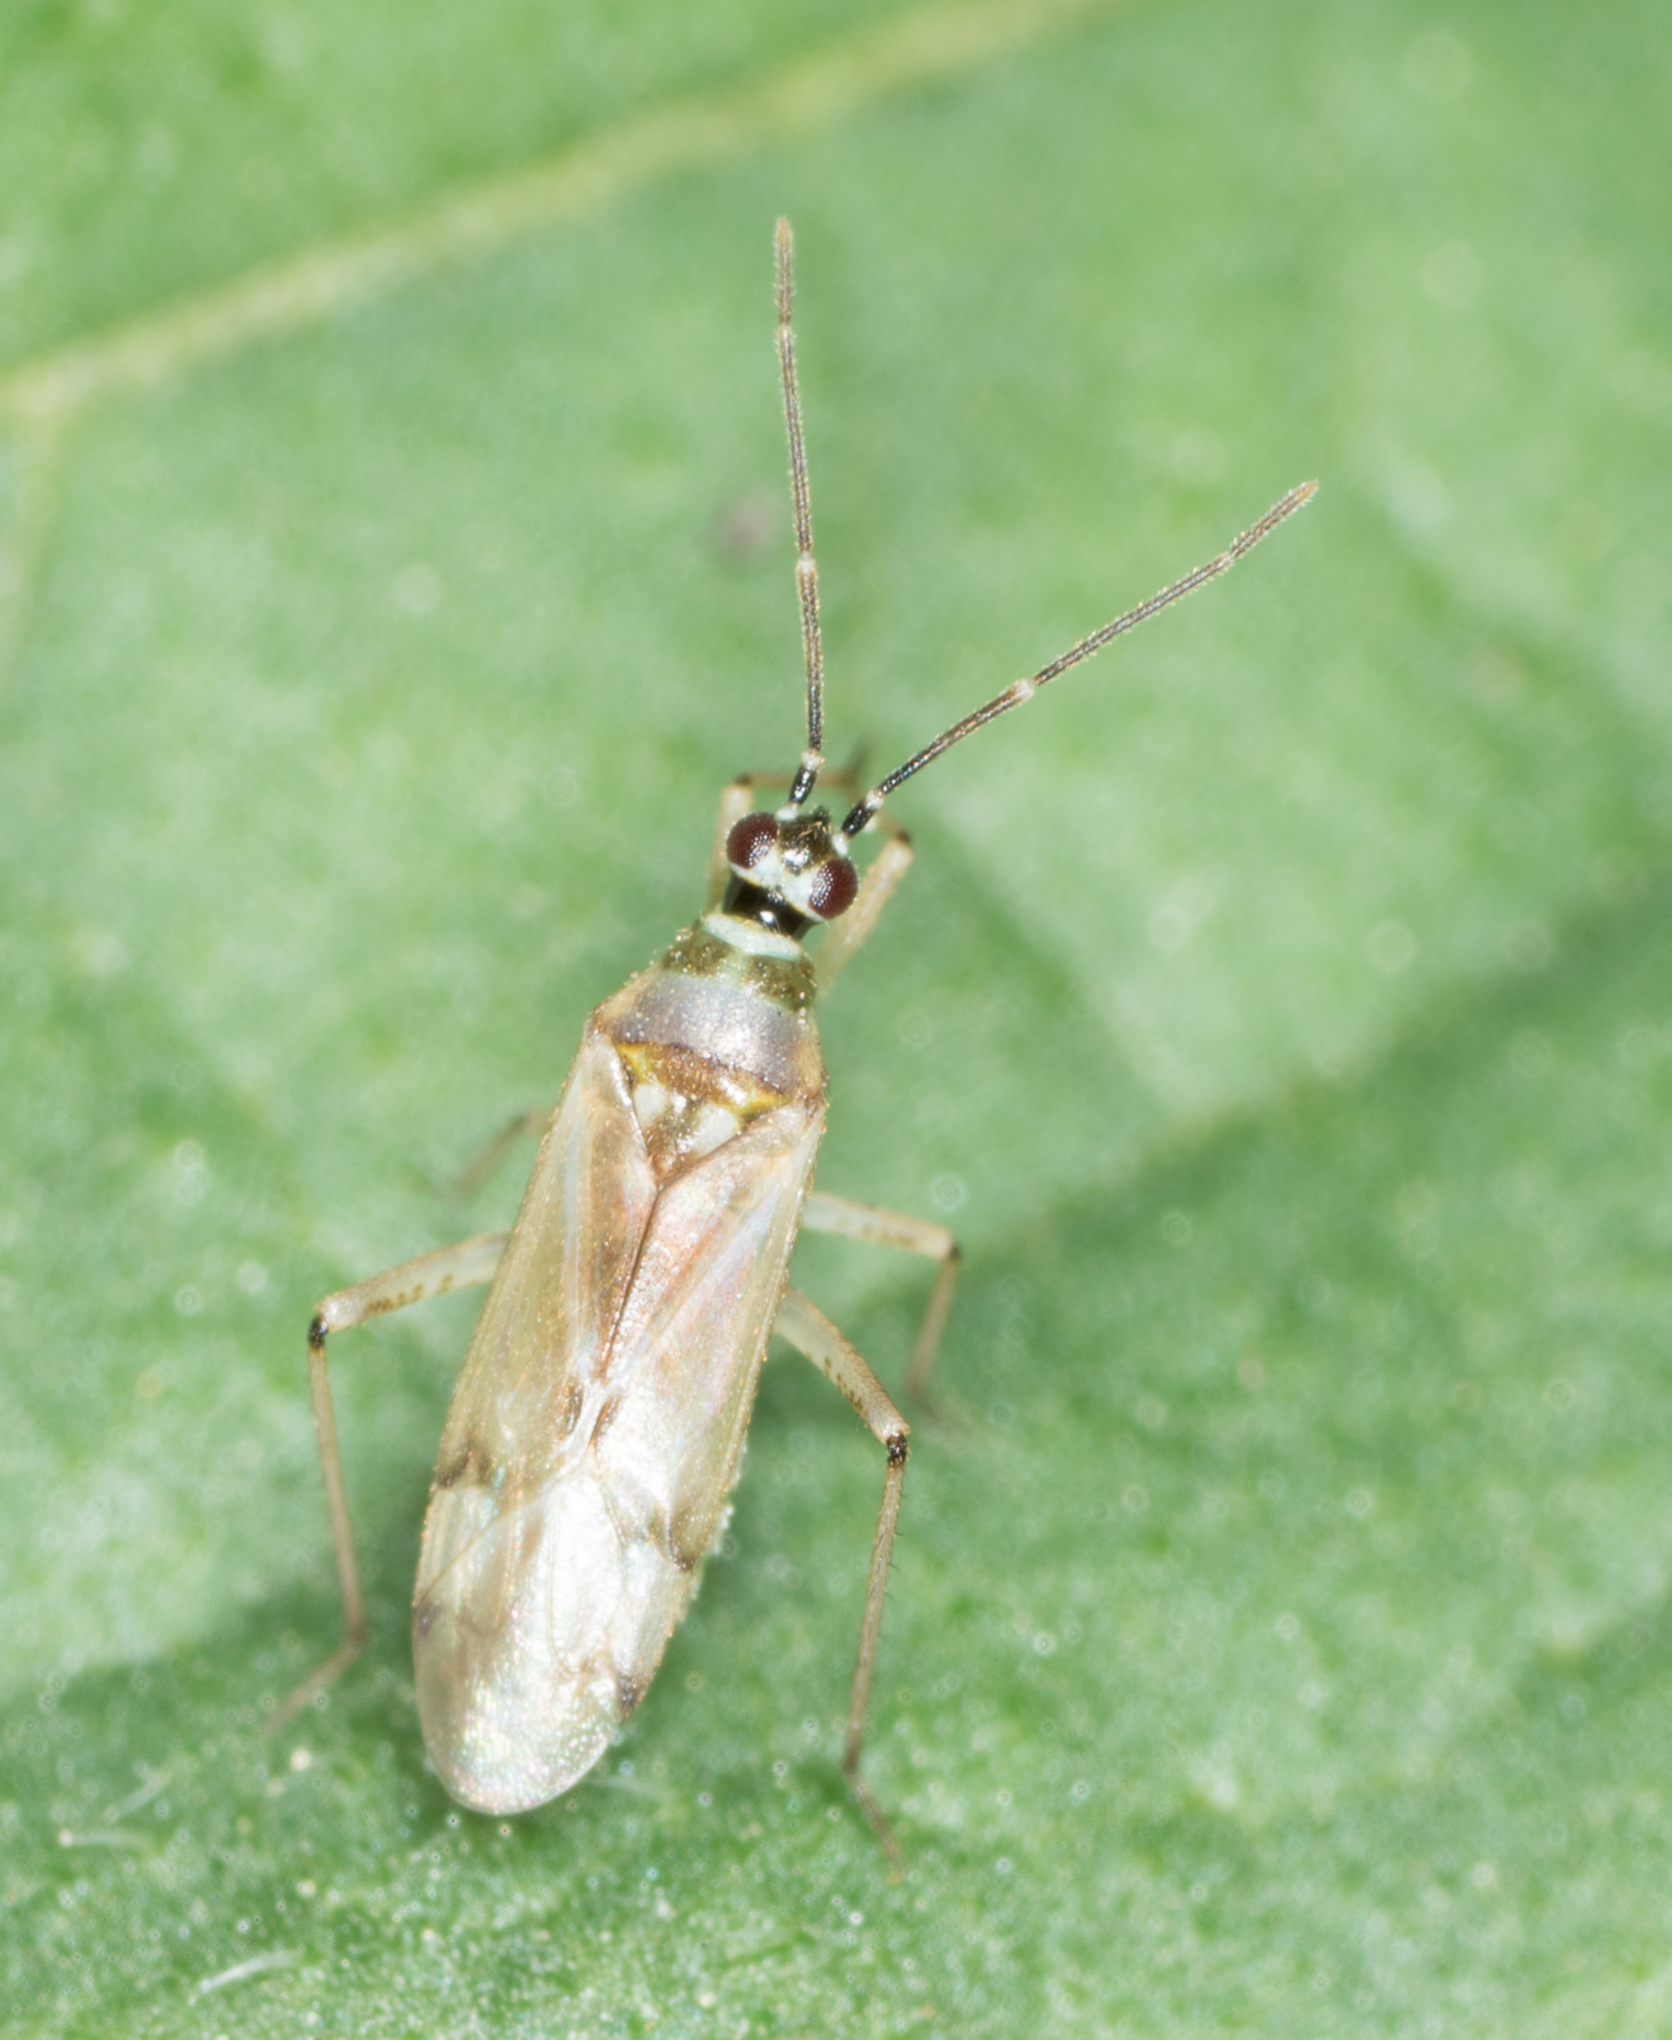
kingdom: Animalia
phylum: Arthropoda
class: Insecta
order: Hemiptera
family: Miridae
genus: Engytatus
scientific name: Engytatus modestus
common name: Tomato bug
